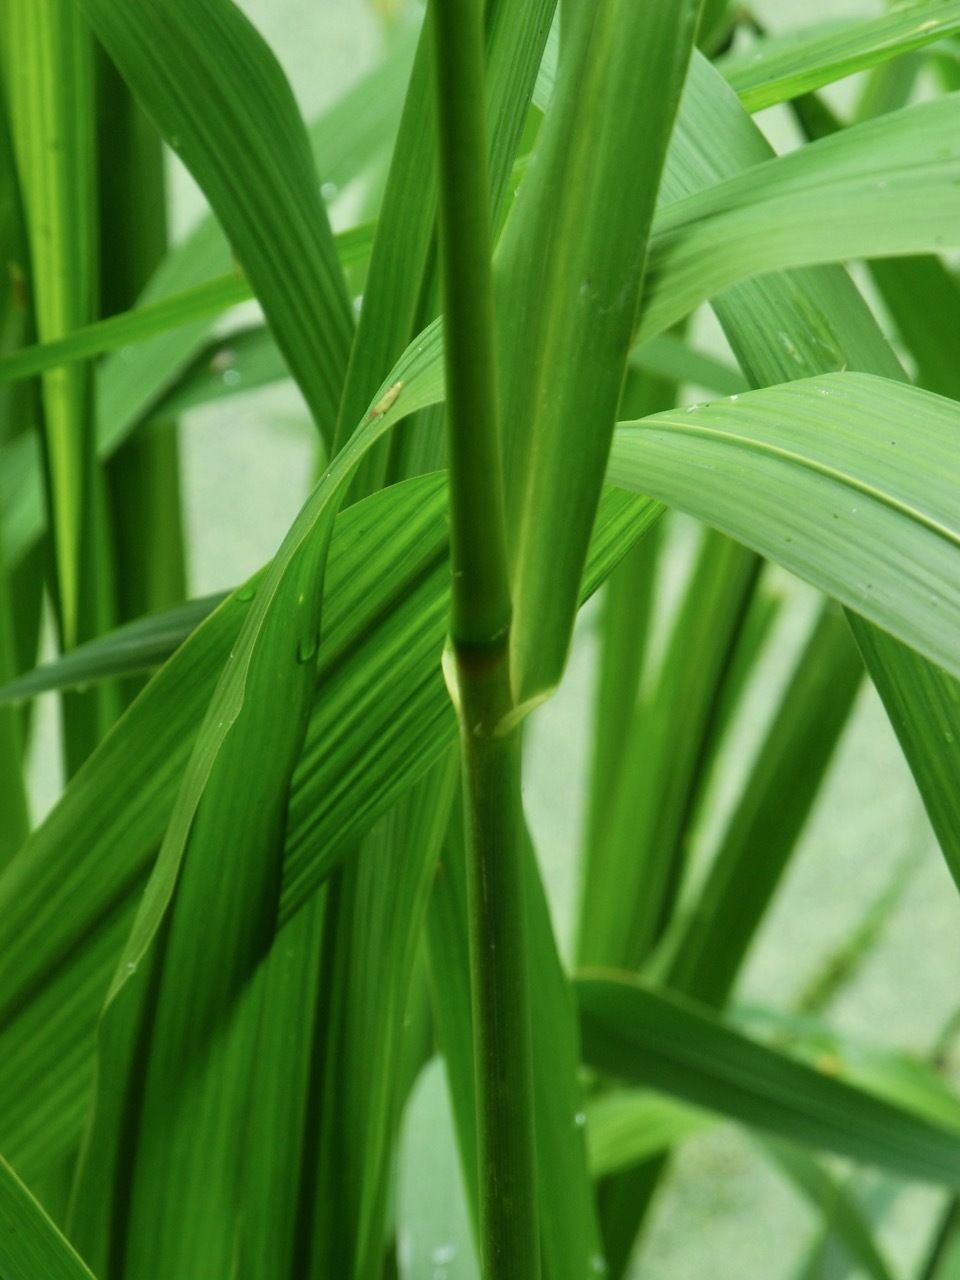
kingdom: Plantae
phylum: Tracheophyta
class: Liliopsida
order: Poales
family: Poaceae
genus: Zizaniopsis
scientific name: Zizaniopsis miliacea
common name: Giant-cutgrass
